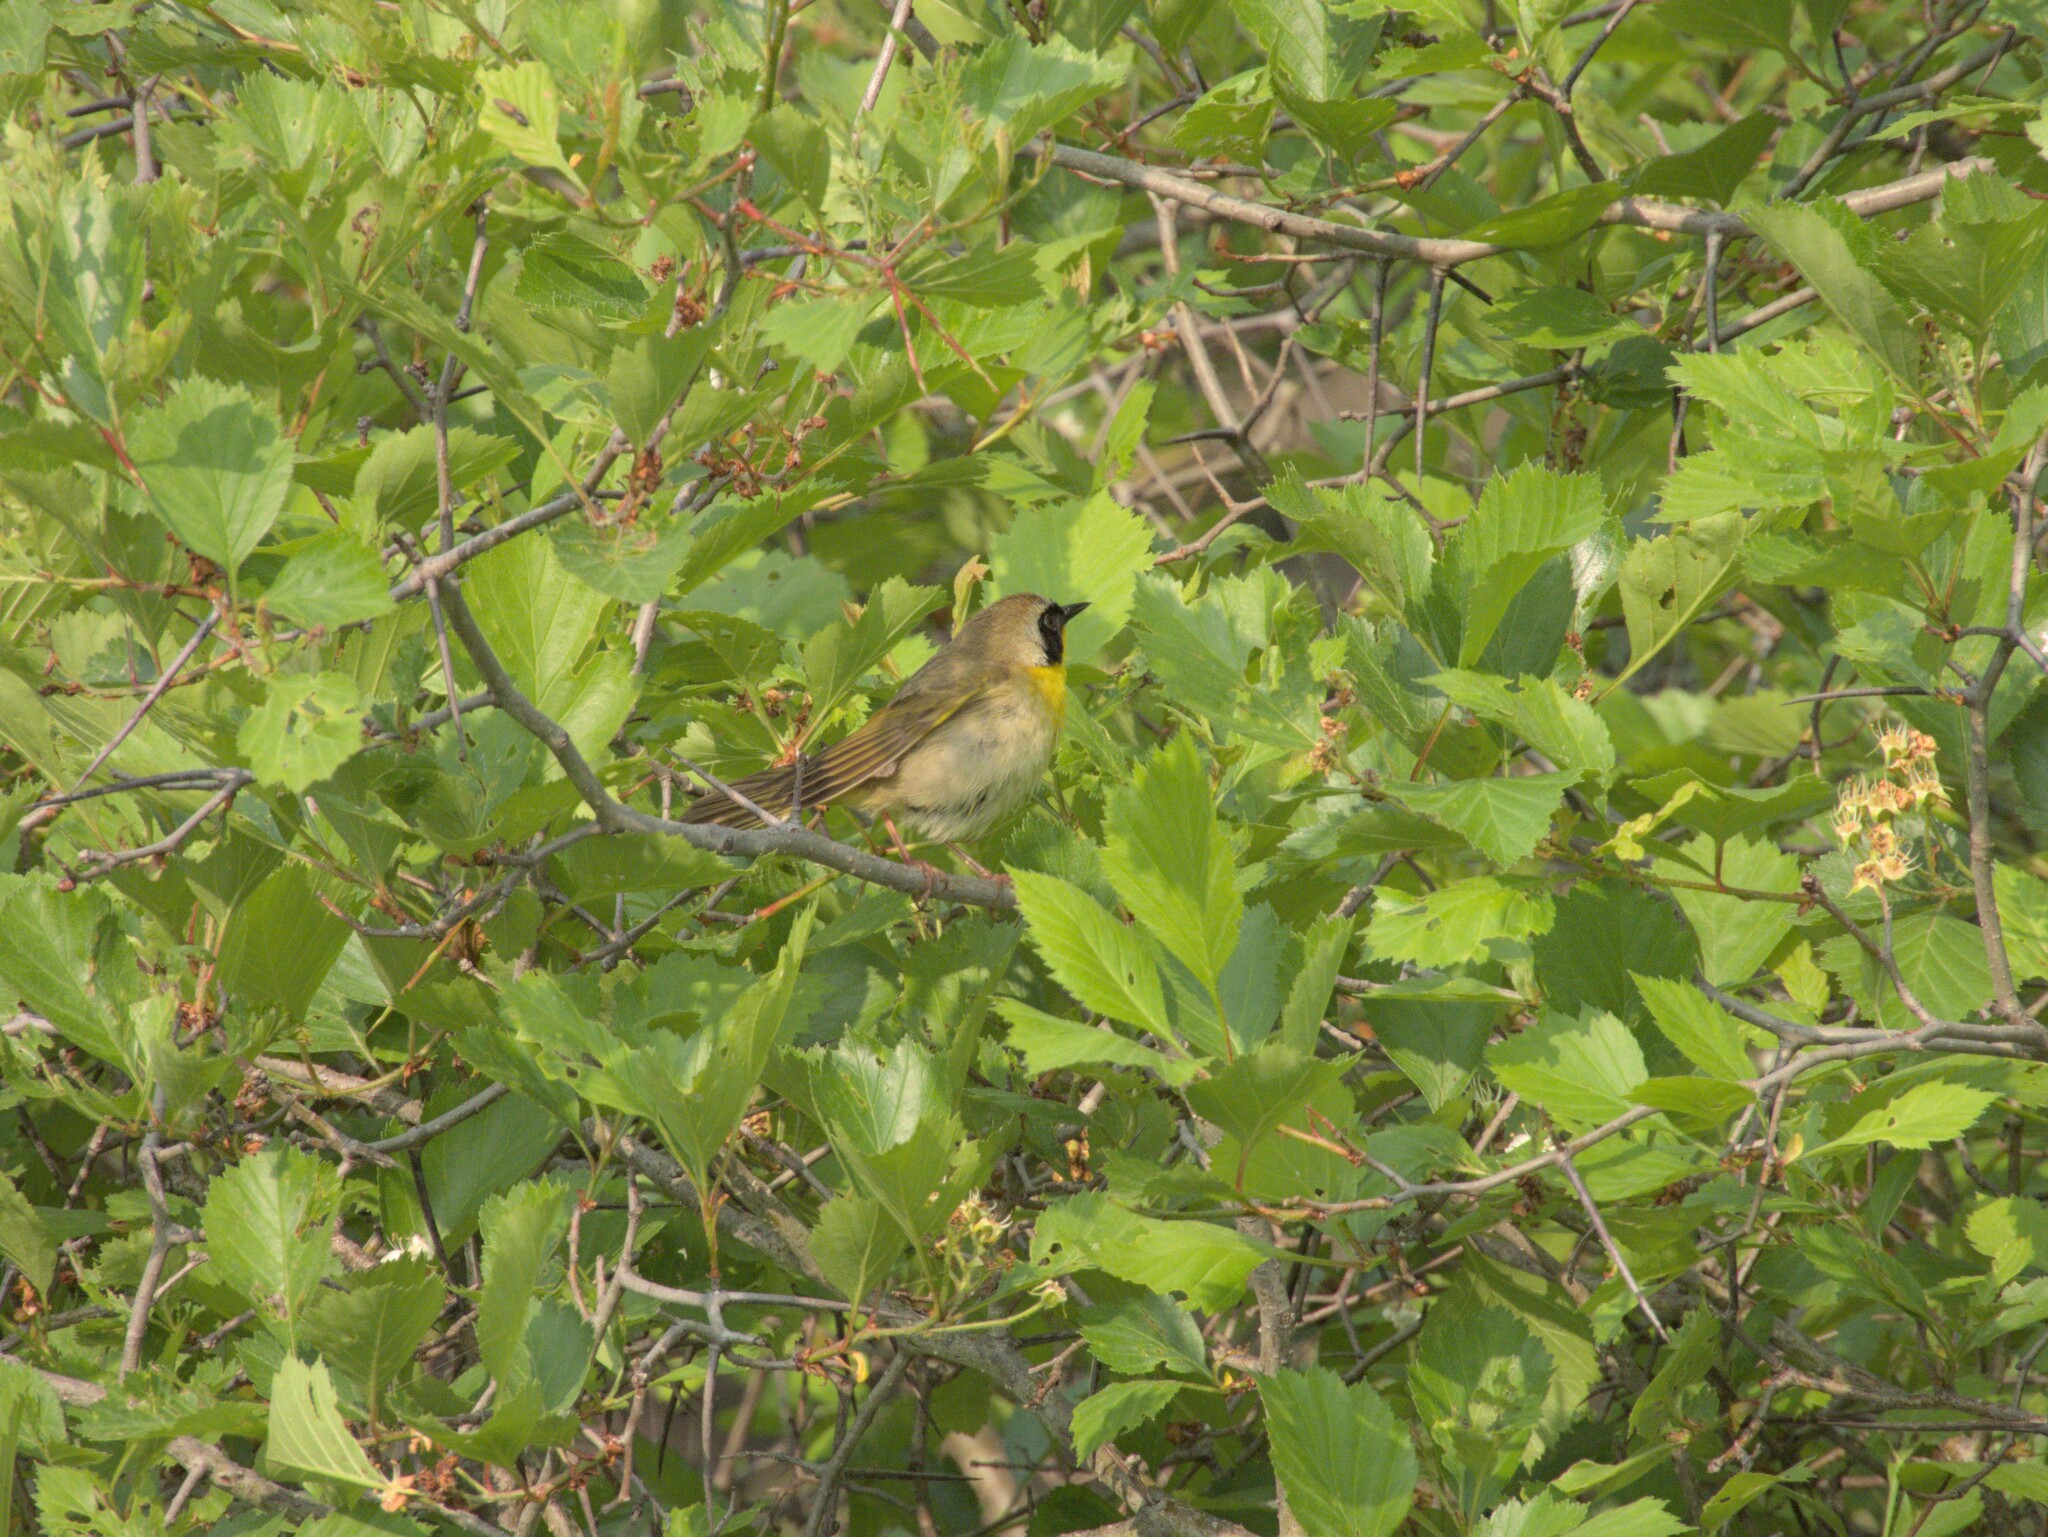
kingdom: Animalia
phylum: Chordata
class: Aves
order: Passeriformes
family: Parulidae
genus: Geothlypis
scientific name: Geothlypis trichas
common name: Common yellowthroat
